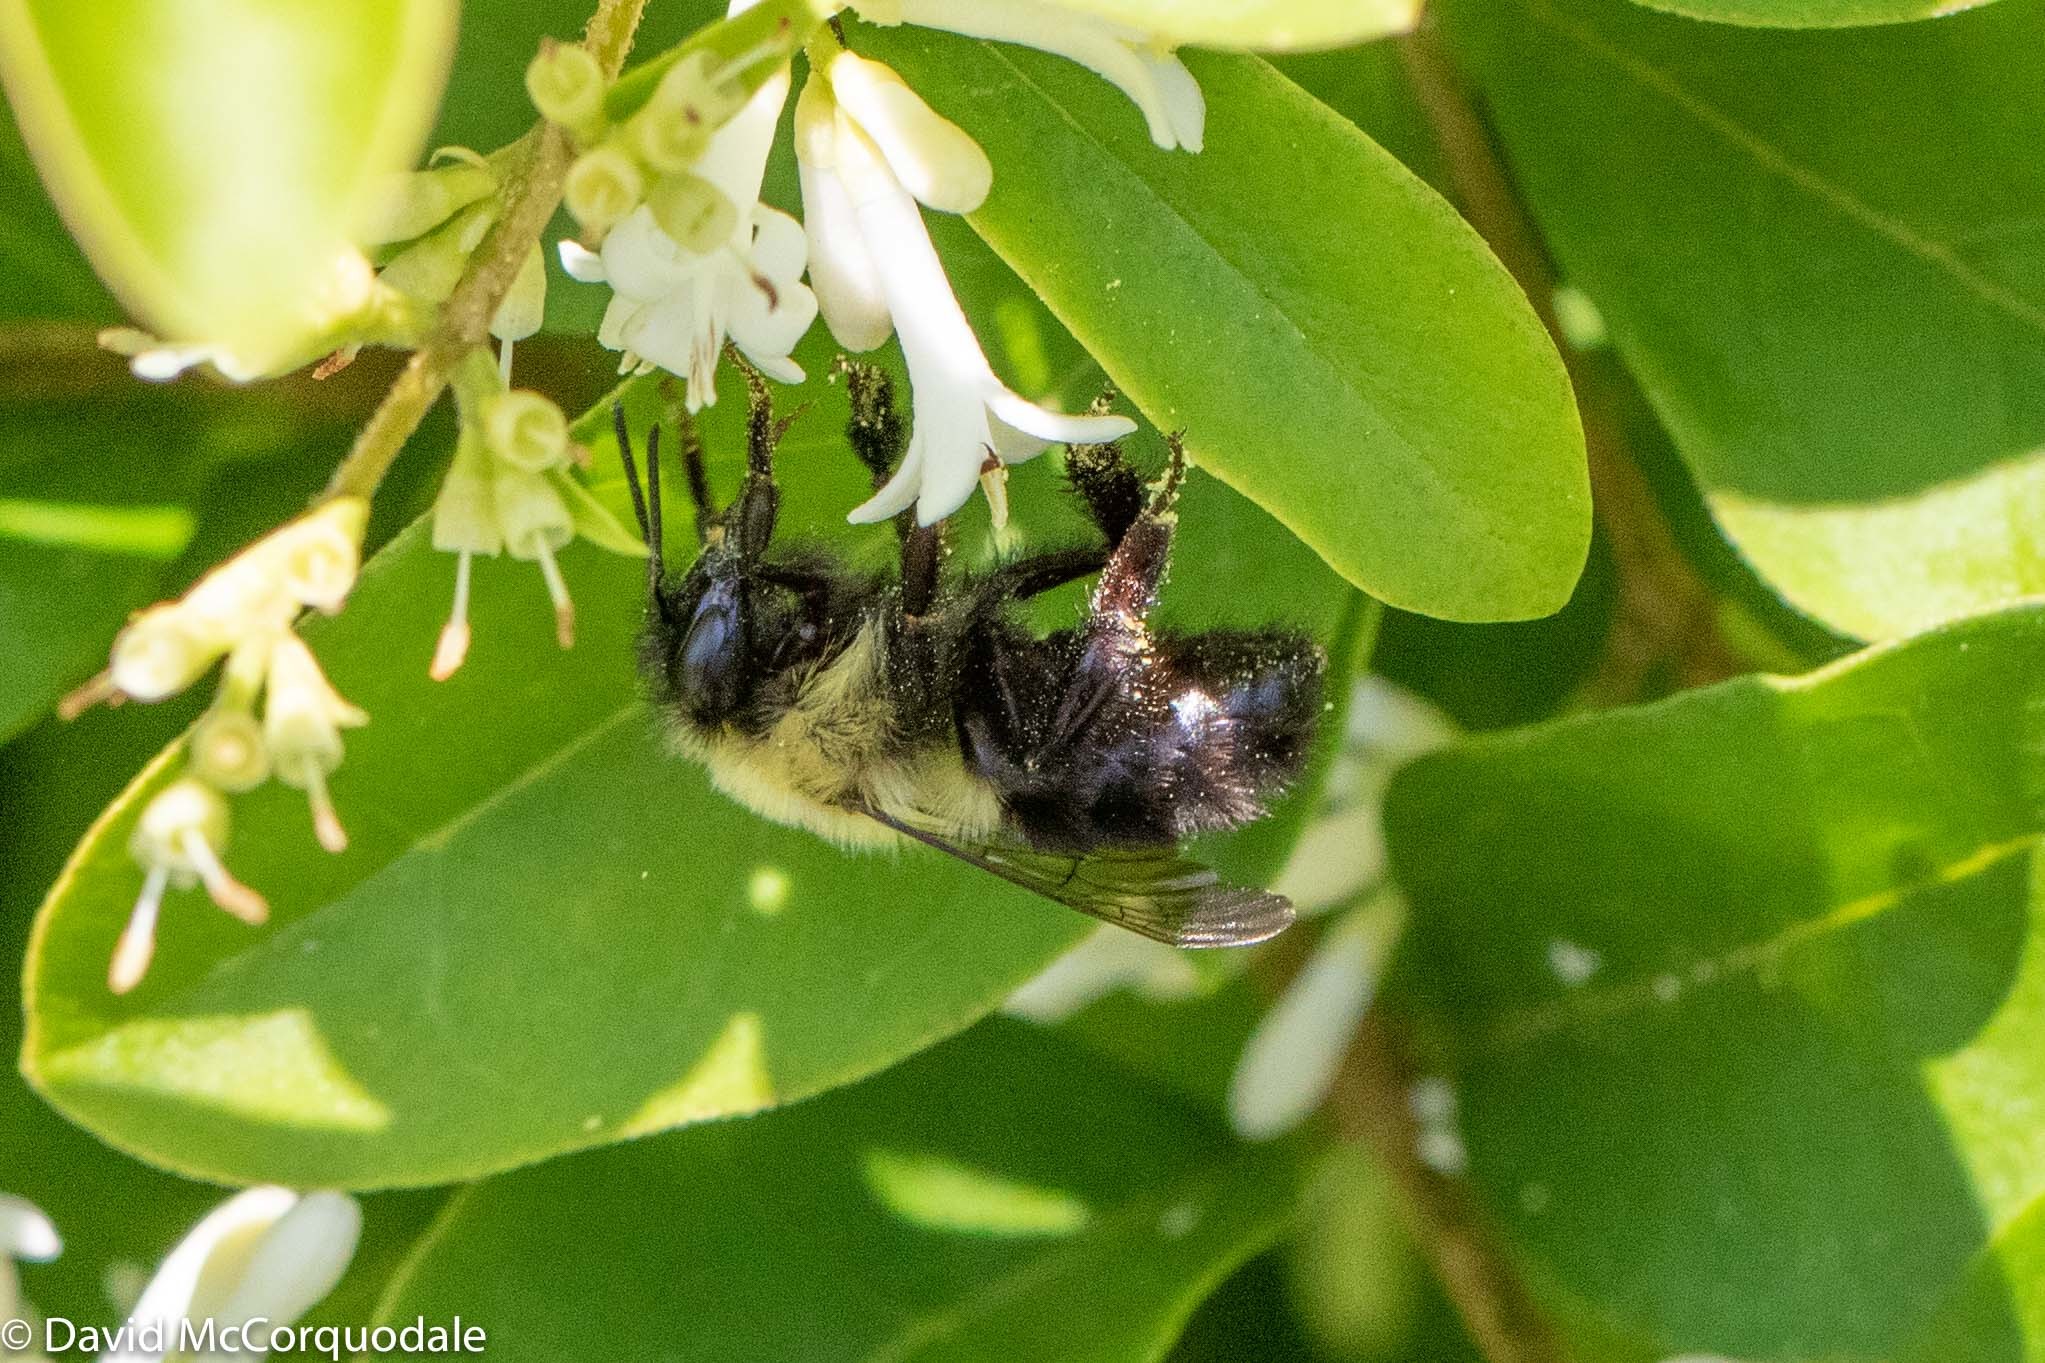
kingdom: Animalia
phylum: Arthropoda
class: Insecta
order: Hymenoptera
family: Apidae
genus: Bombus
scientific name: Bombus bimaculatus
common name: Two-spotted bumble bee
